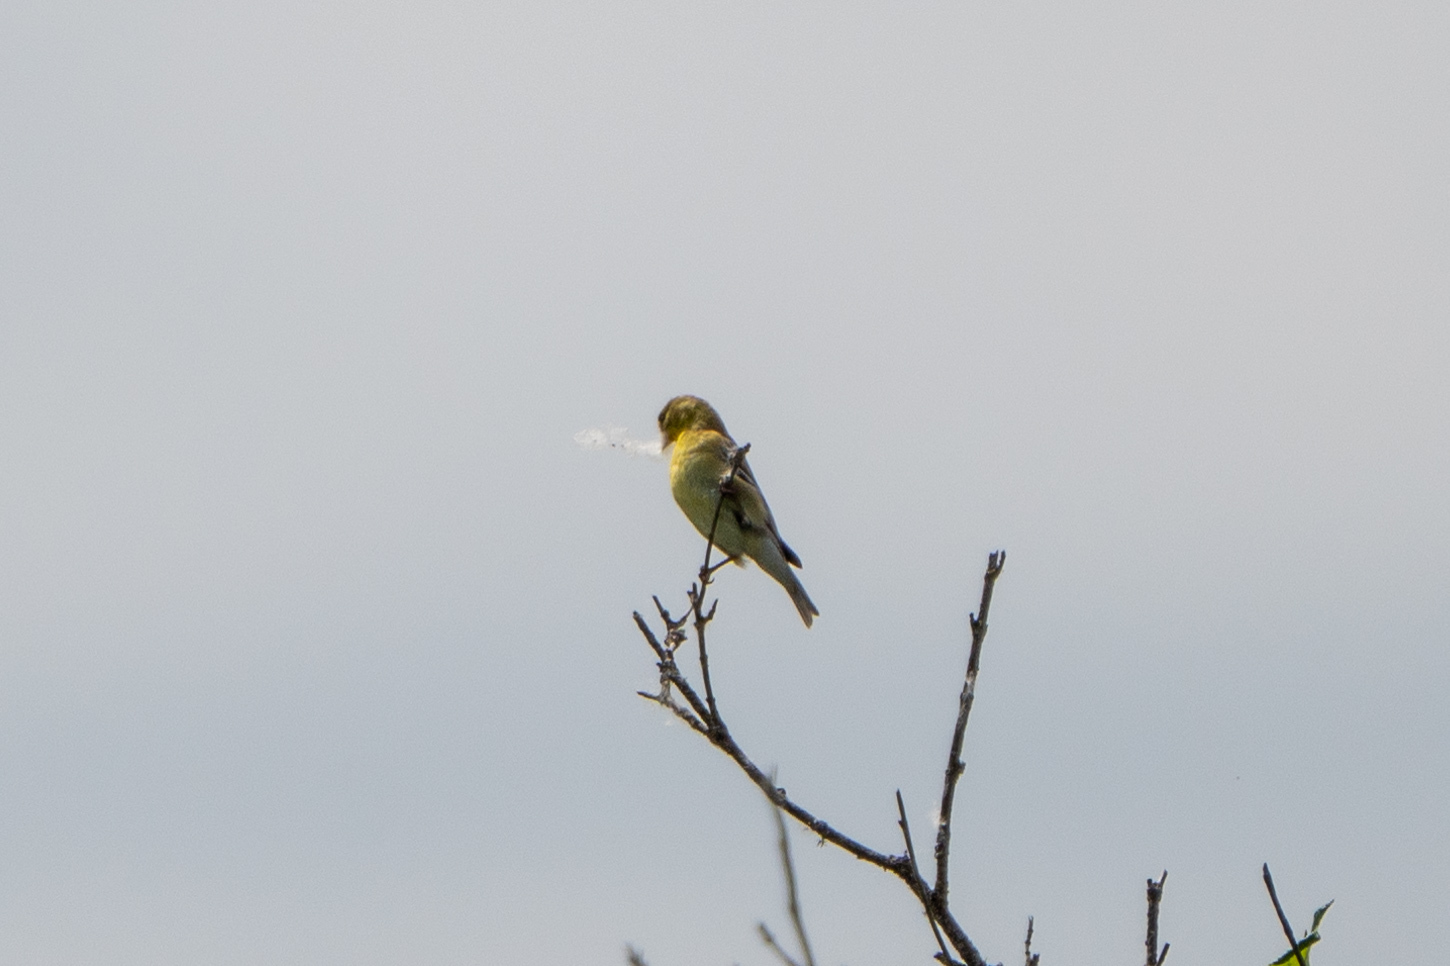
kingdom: Animalia
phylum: Chordata
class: Aves
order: Passeriformes
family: Fringillidae
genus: Spinus
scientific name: Spinus tristis
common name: American goldfinch
